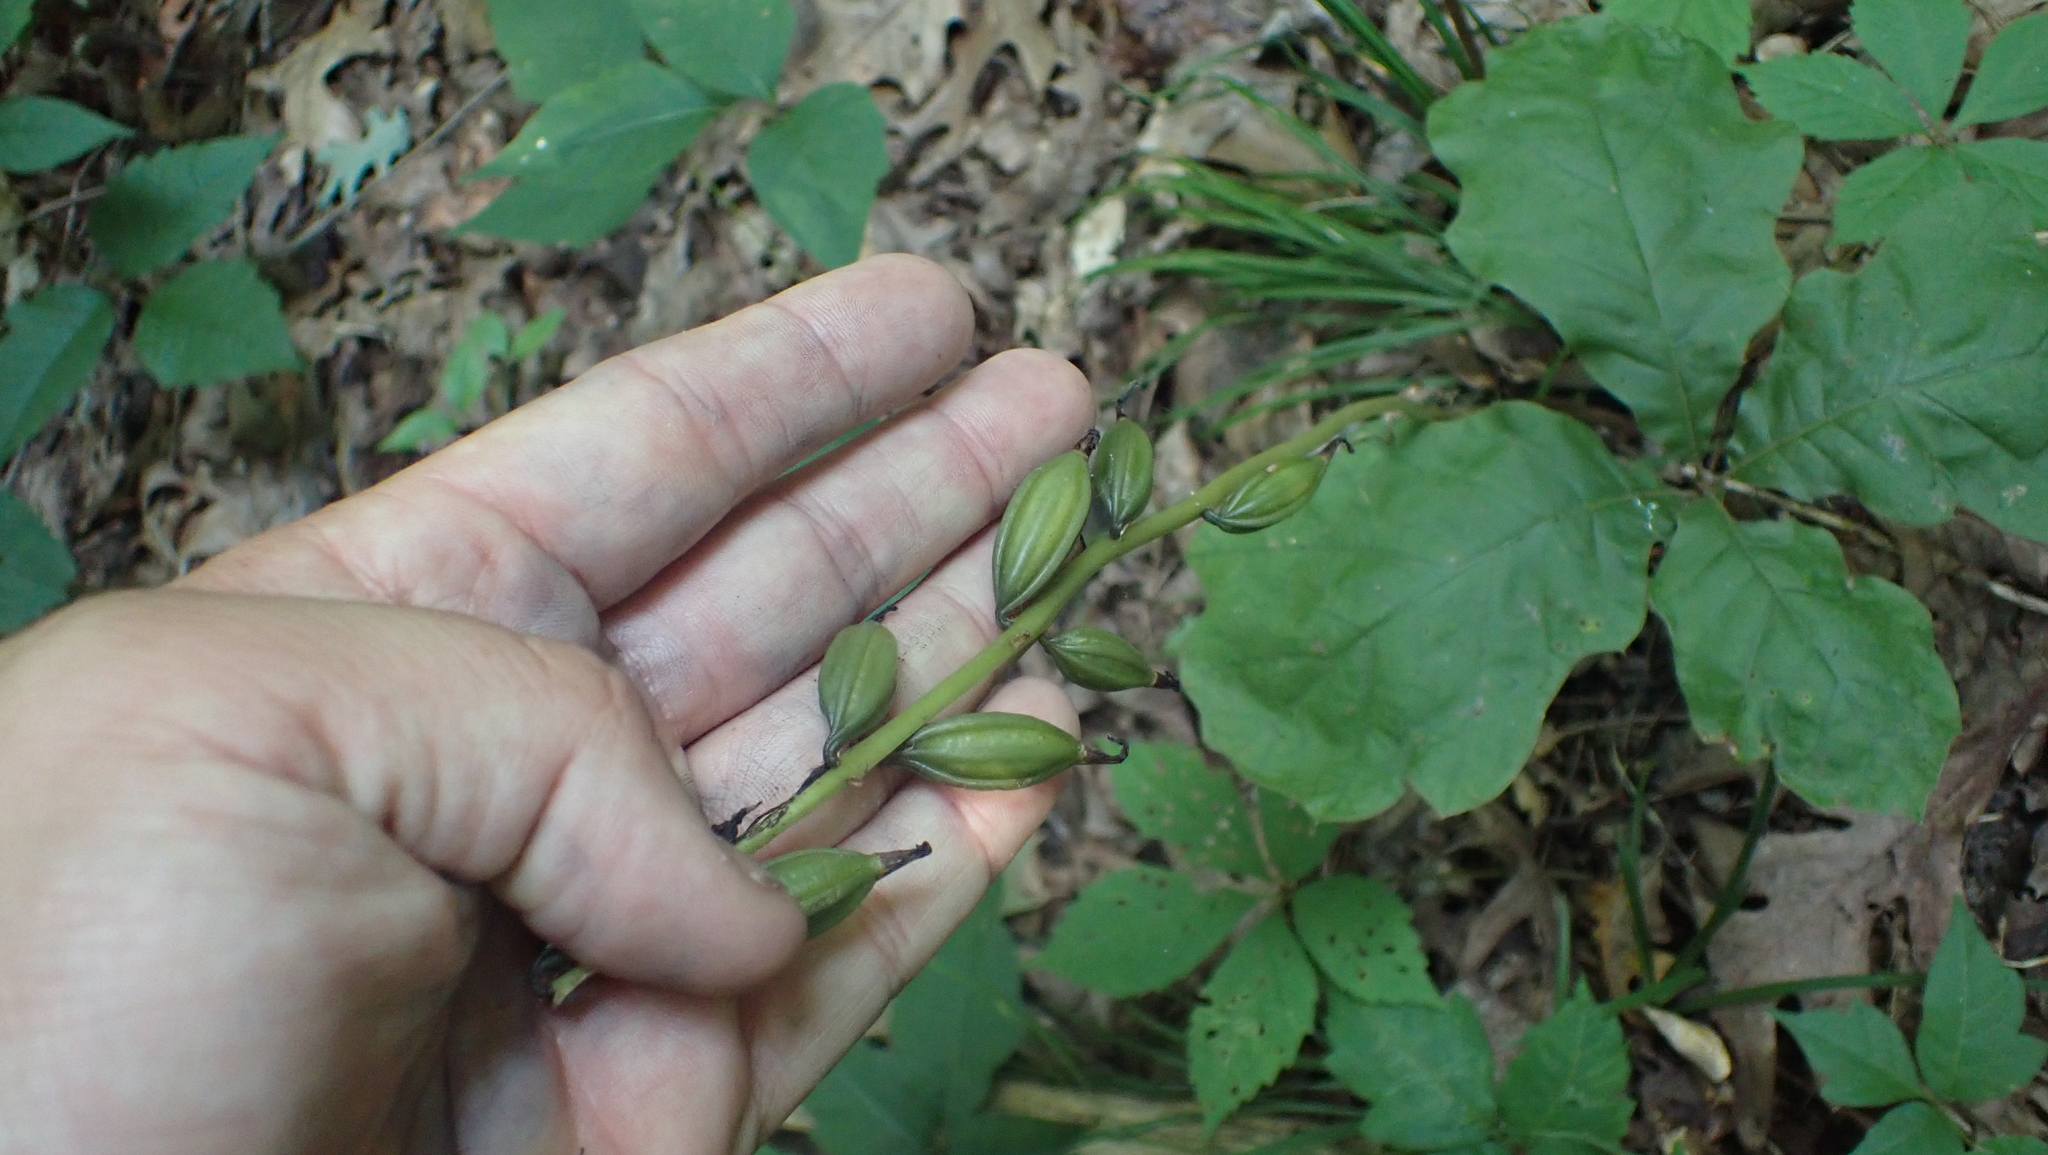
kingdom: Plantae
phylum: Tracheophyta
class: Liliopsida
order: Asparagales
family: Orchidaceae
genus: Aplectrum
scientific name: Aplectrum hyemale
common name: Adam-and-eve
